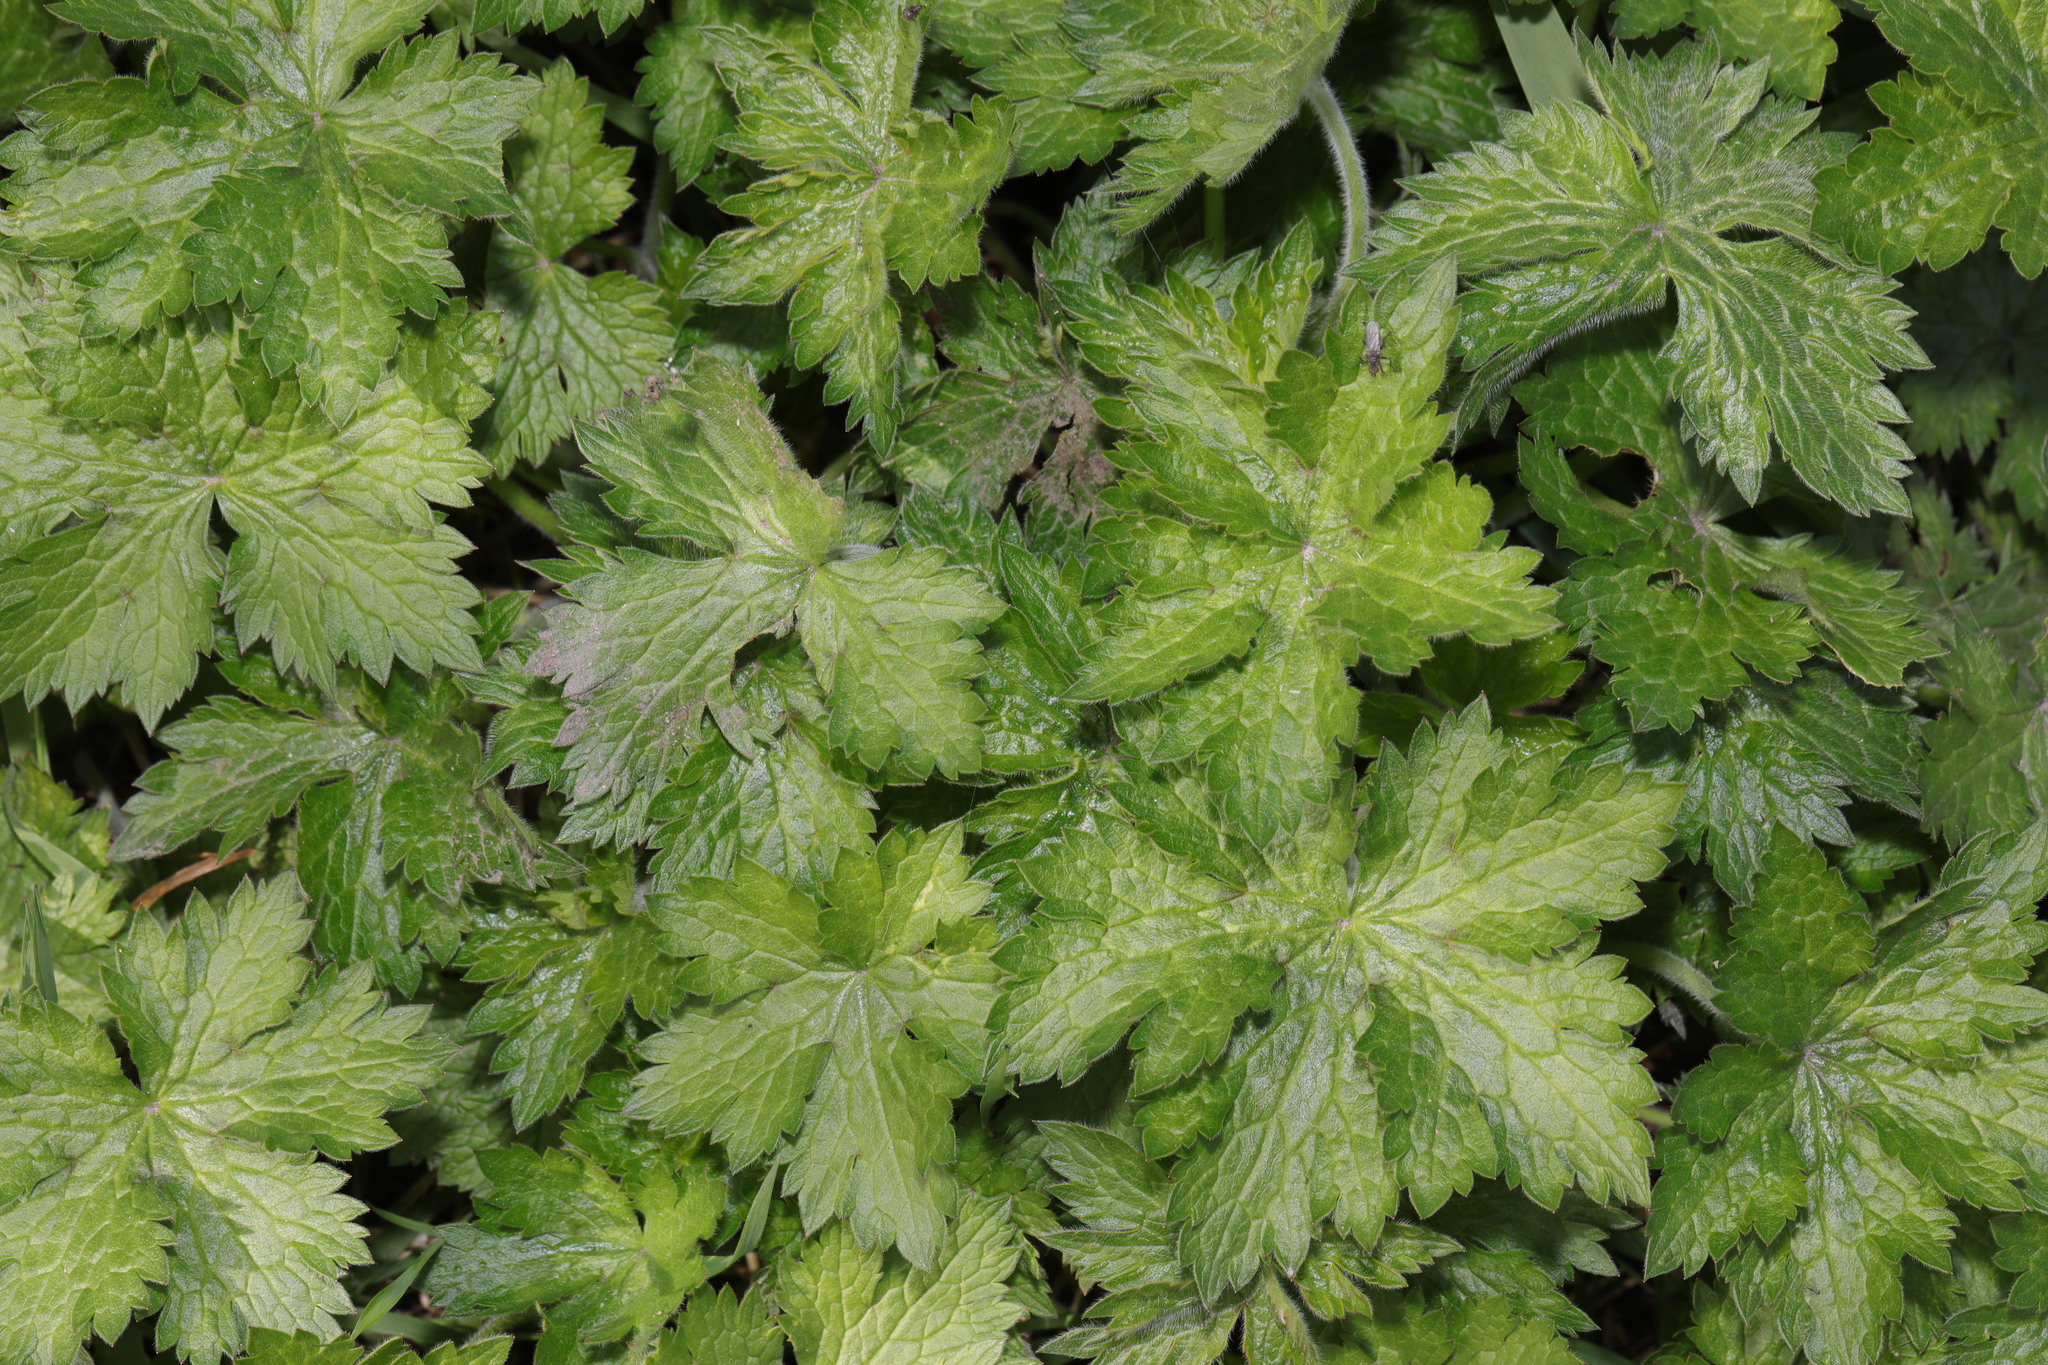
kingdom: Plantae
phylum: Tracheophyta
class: Magnoliopsida
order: Geraniales
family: Geraniaceae
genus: Geranium
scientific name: Geranium oxonianum
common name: Druce's crane's-bill
